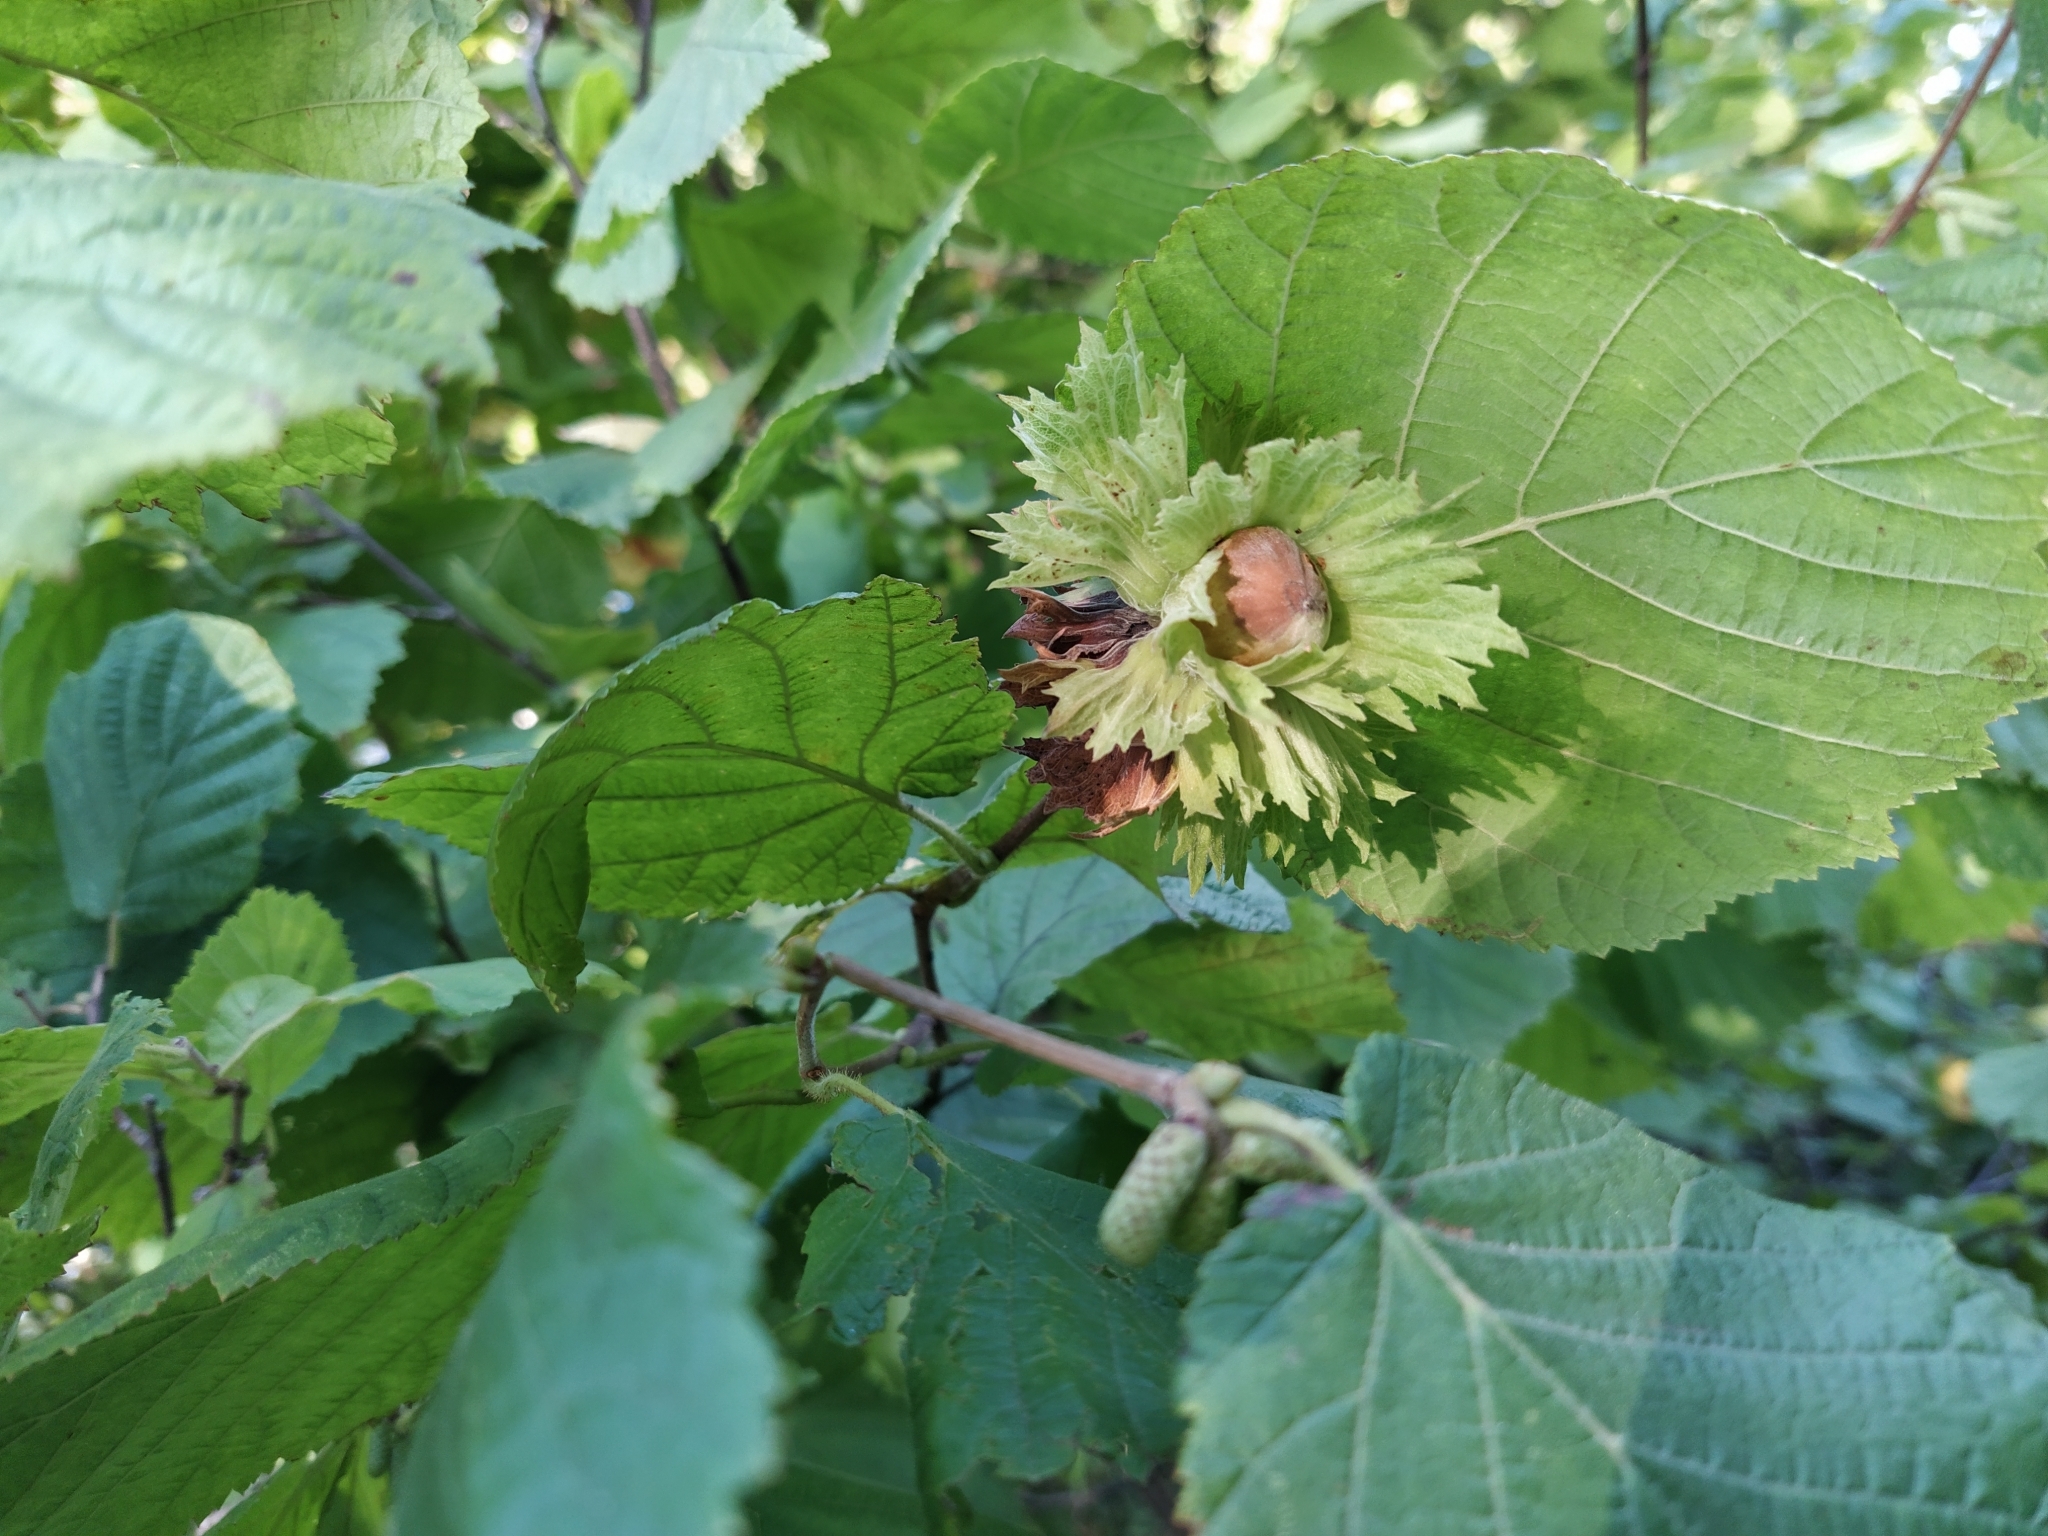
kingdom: Plantae
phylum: Tracheophyta
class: Magnoliopsida
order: Fagales
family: Betulaceae
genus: Corylus
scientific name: Corylus avellana
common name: European hazel
